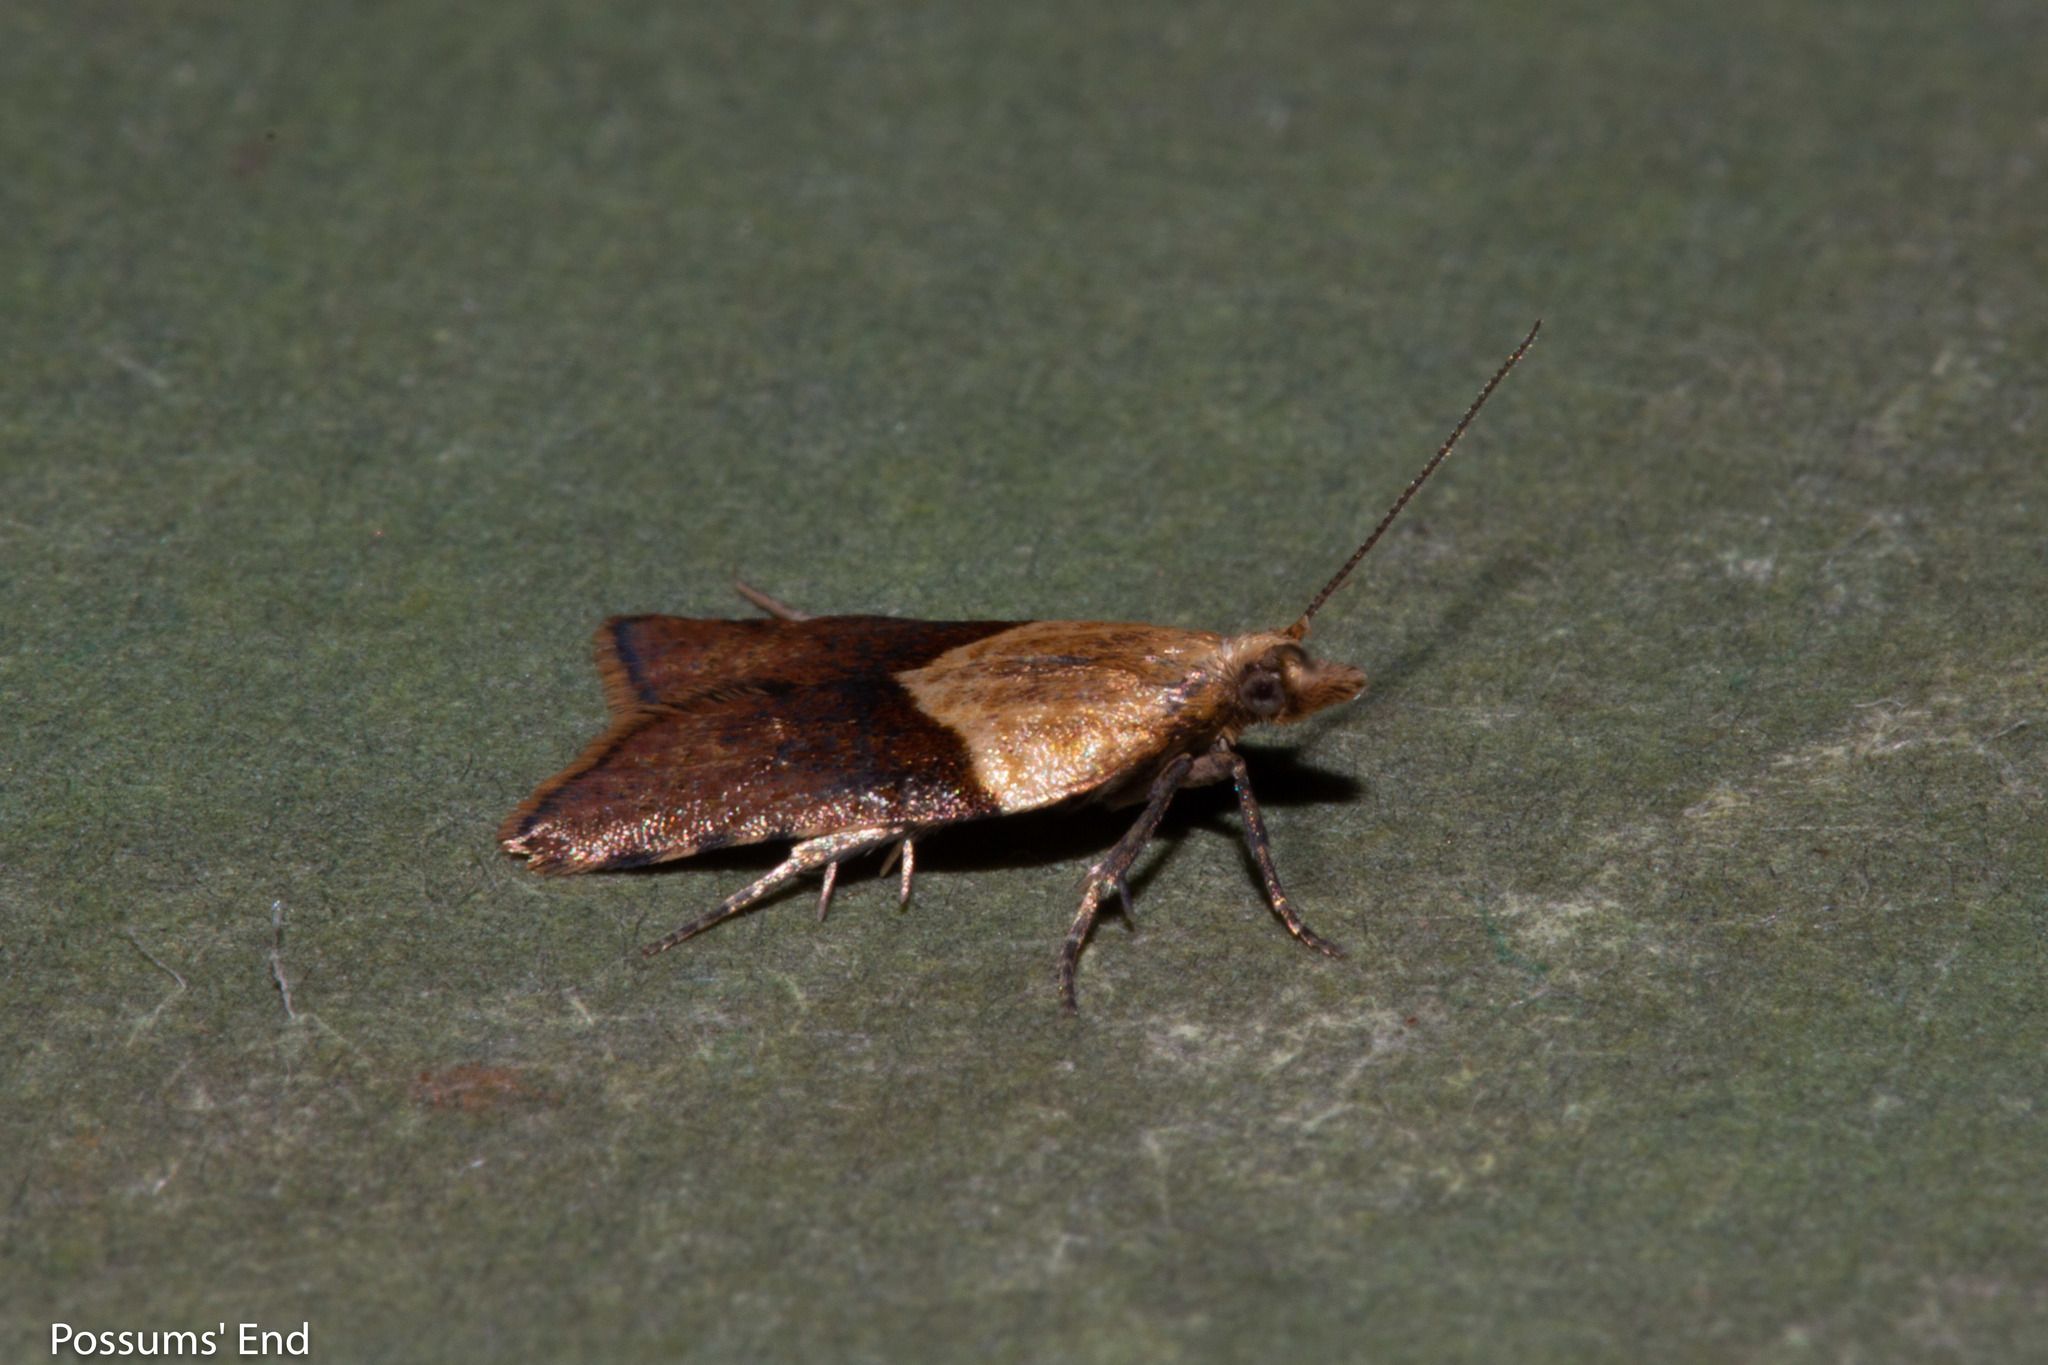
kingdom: Animalia
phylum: Arthropoda
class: Insecta
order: Lepidoptera
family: Tortricidae
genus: Epichorista
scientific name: Epichorista hemionana
